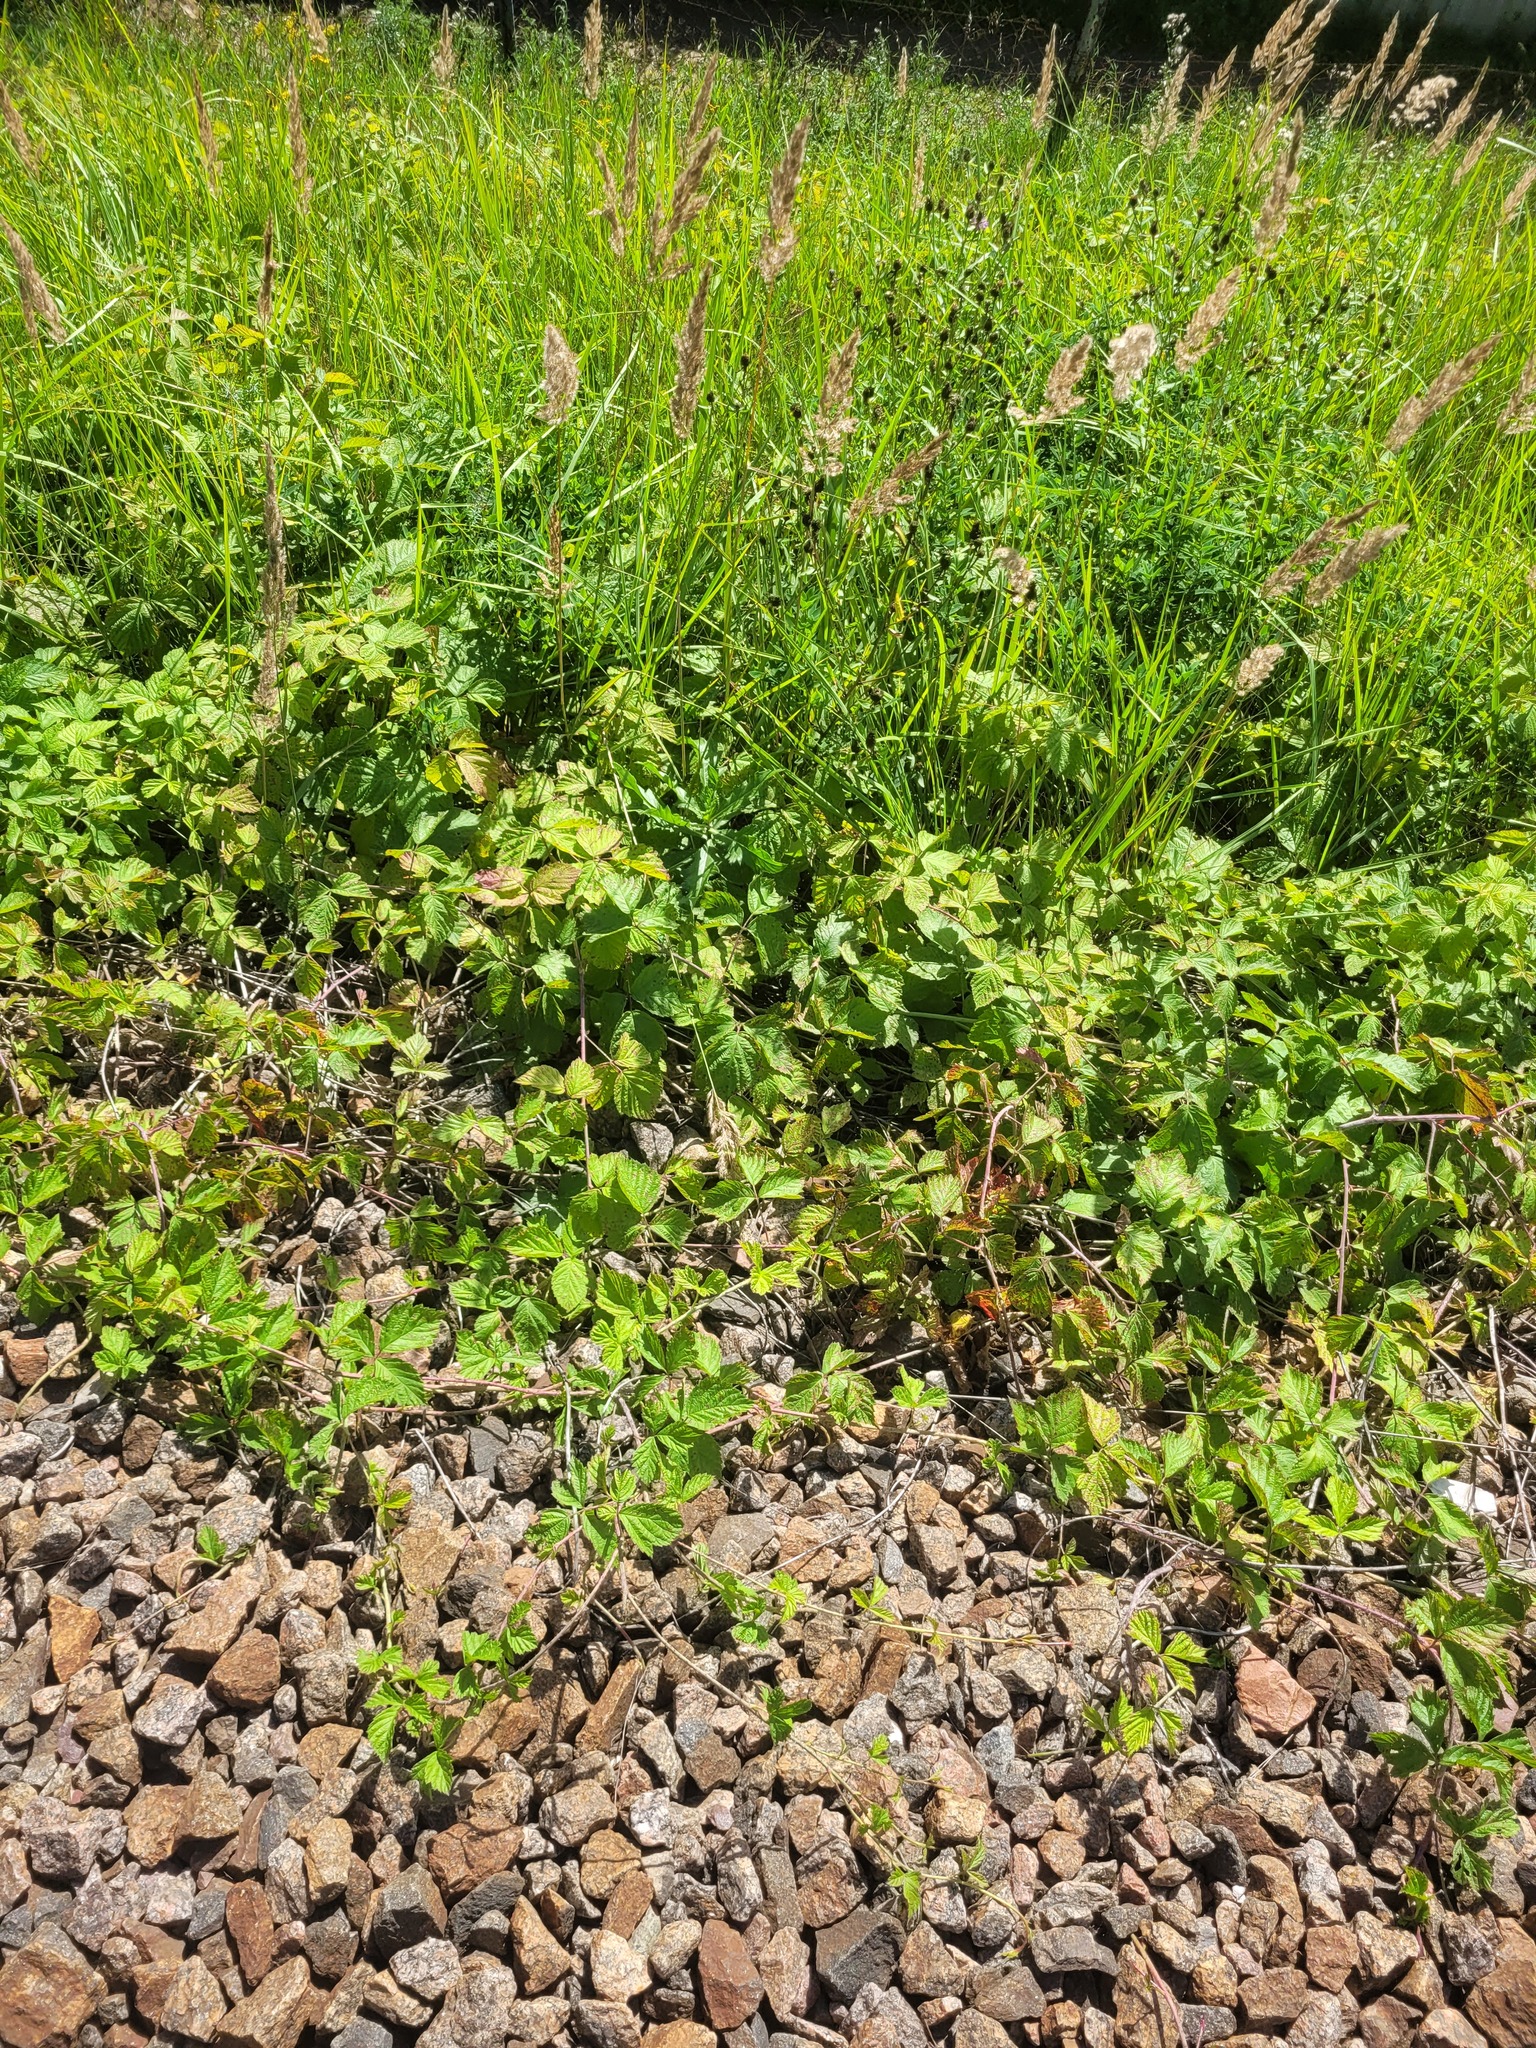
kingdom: Plantae
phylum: Tracheophyta
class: Magnoliopsida
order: Rosales
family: Rosaceae
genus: Rubus
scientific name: Rubus caesius
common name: Dewberry
